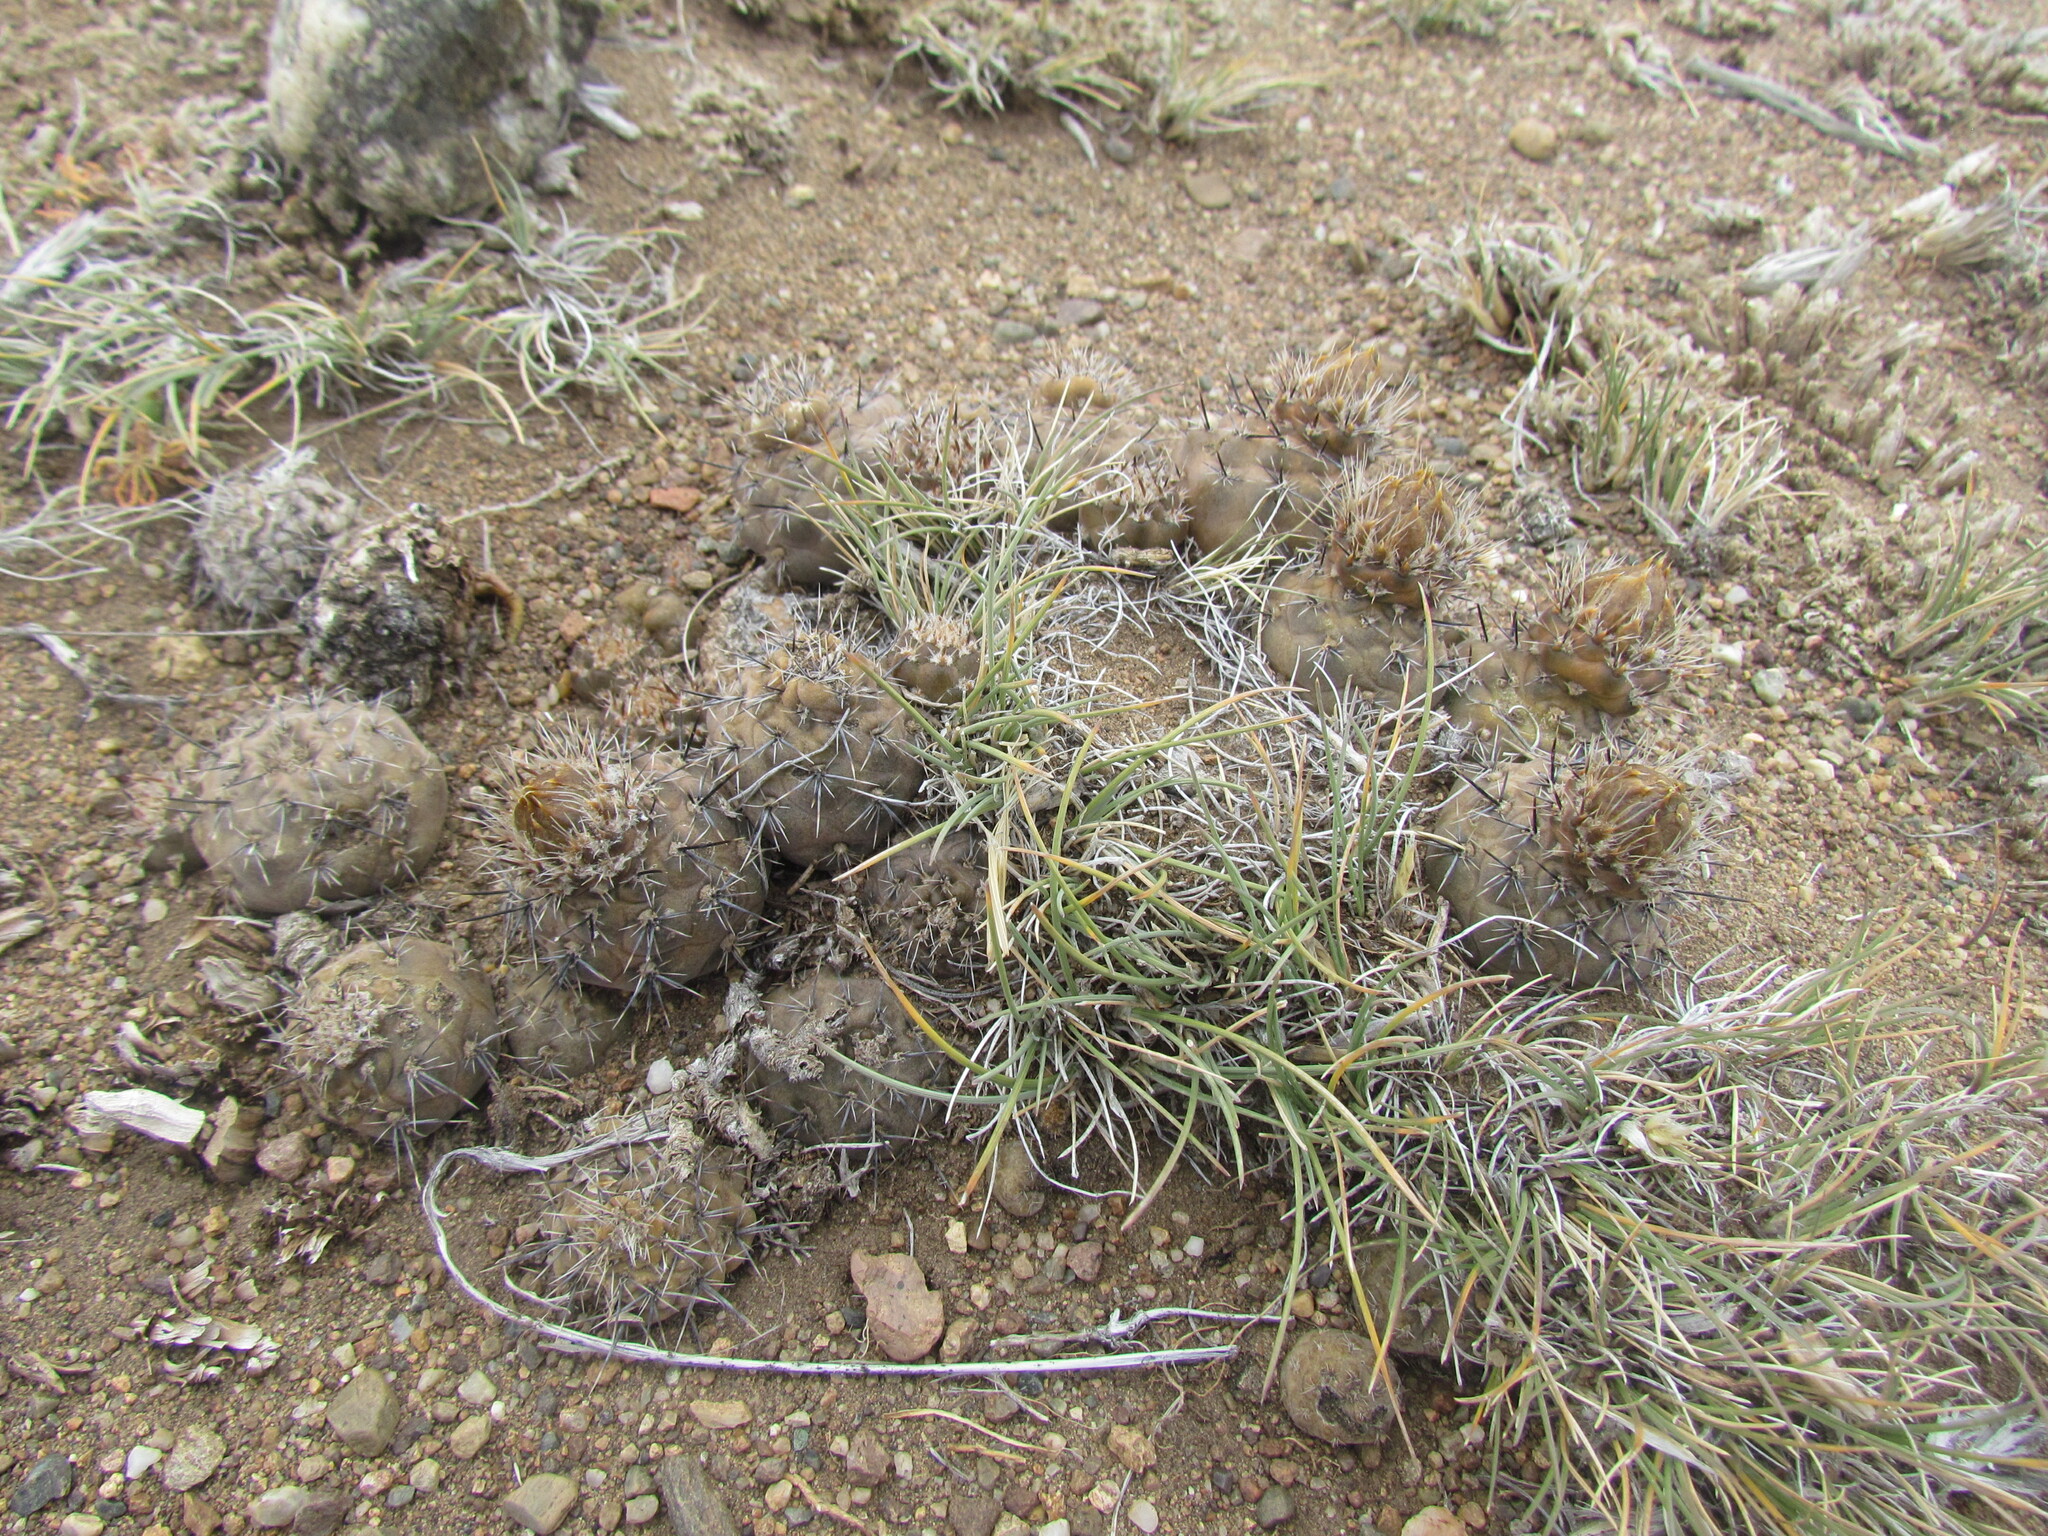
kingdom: Plantae
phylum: Tracheophyta
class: Magnoliopsida
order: Caryophyllales
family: Cactaceae
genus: Pterocactus
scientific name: Pterocactus hickenii
